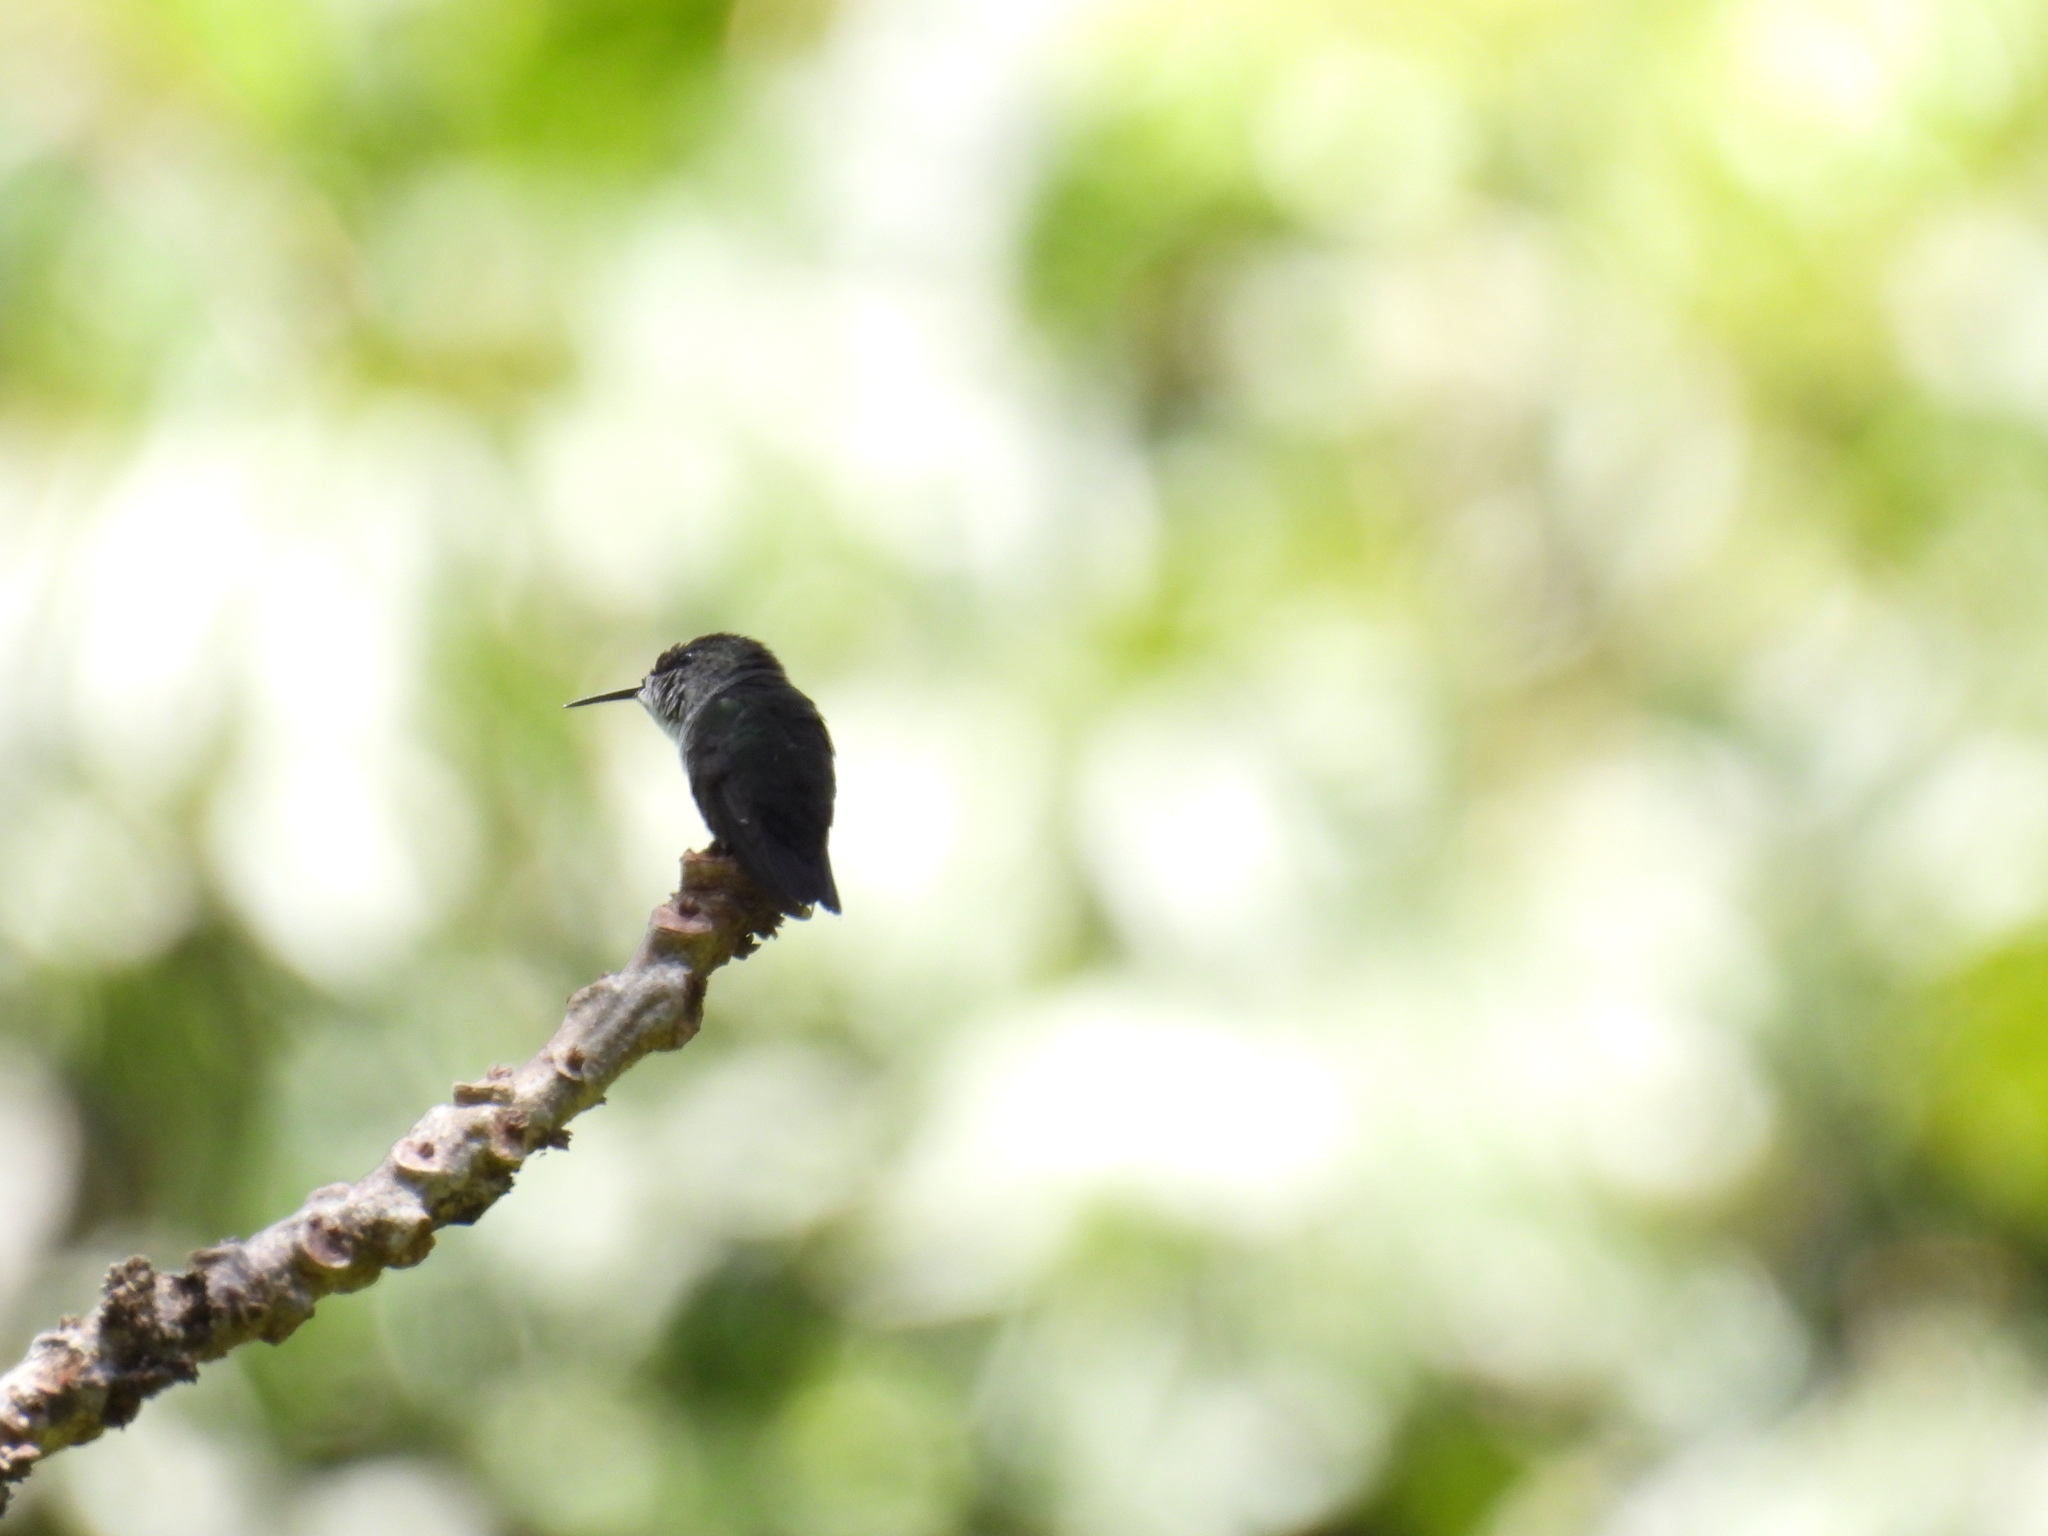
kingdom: Animalia
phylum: Chordata
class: Aves
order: Apodiformes
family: Trochilidae
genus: Mellisuga
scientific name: Mellisuga minima
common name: Vervain hummingbird
